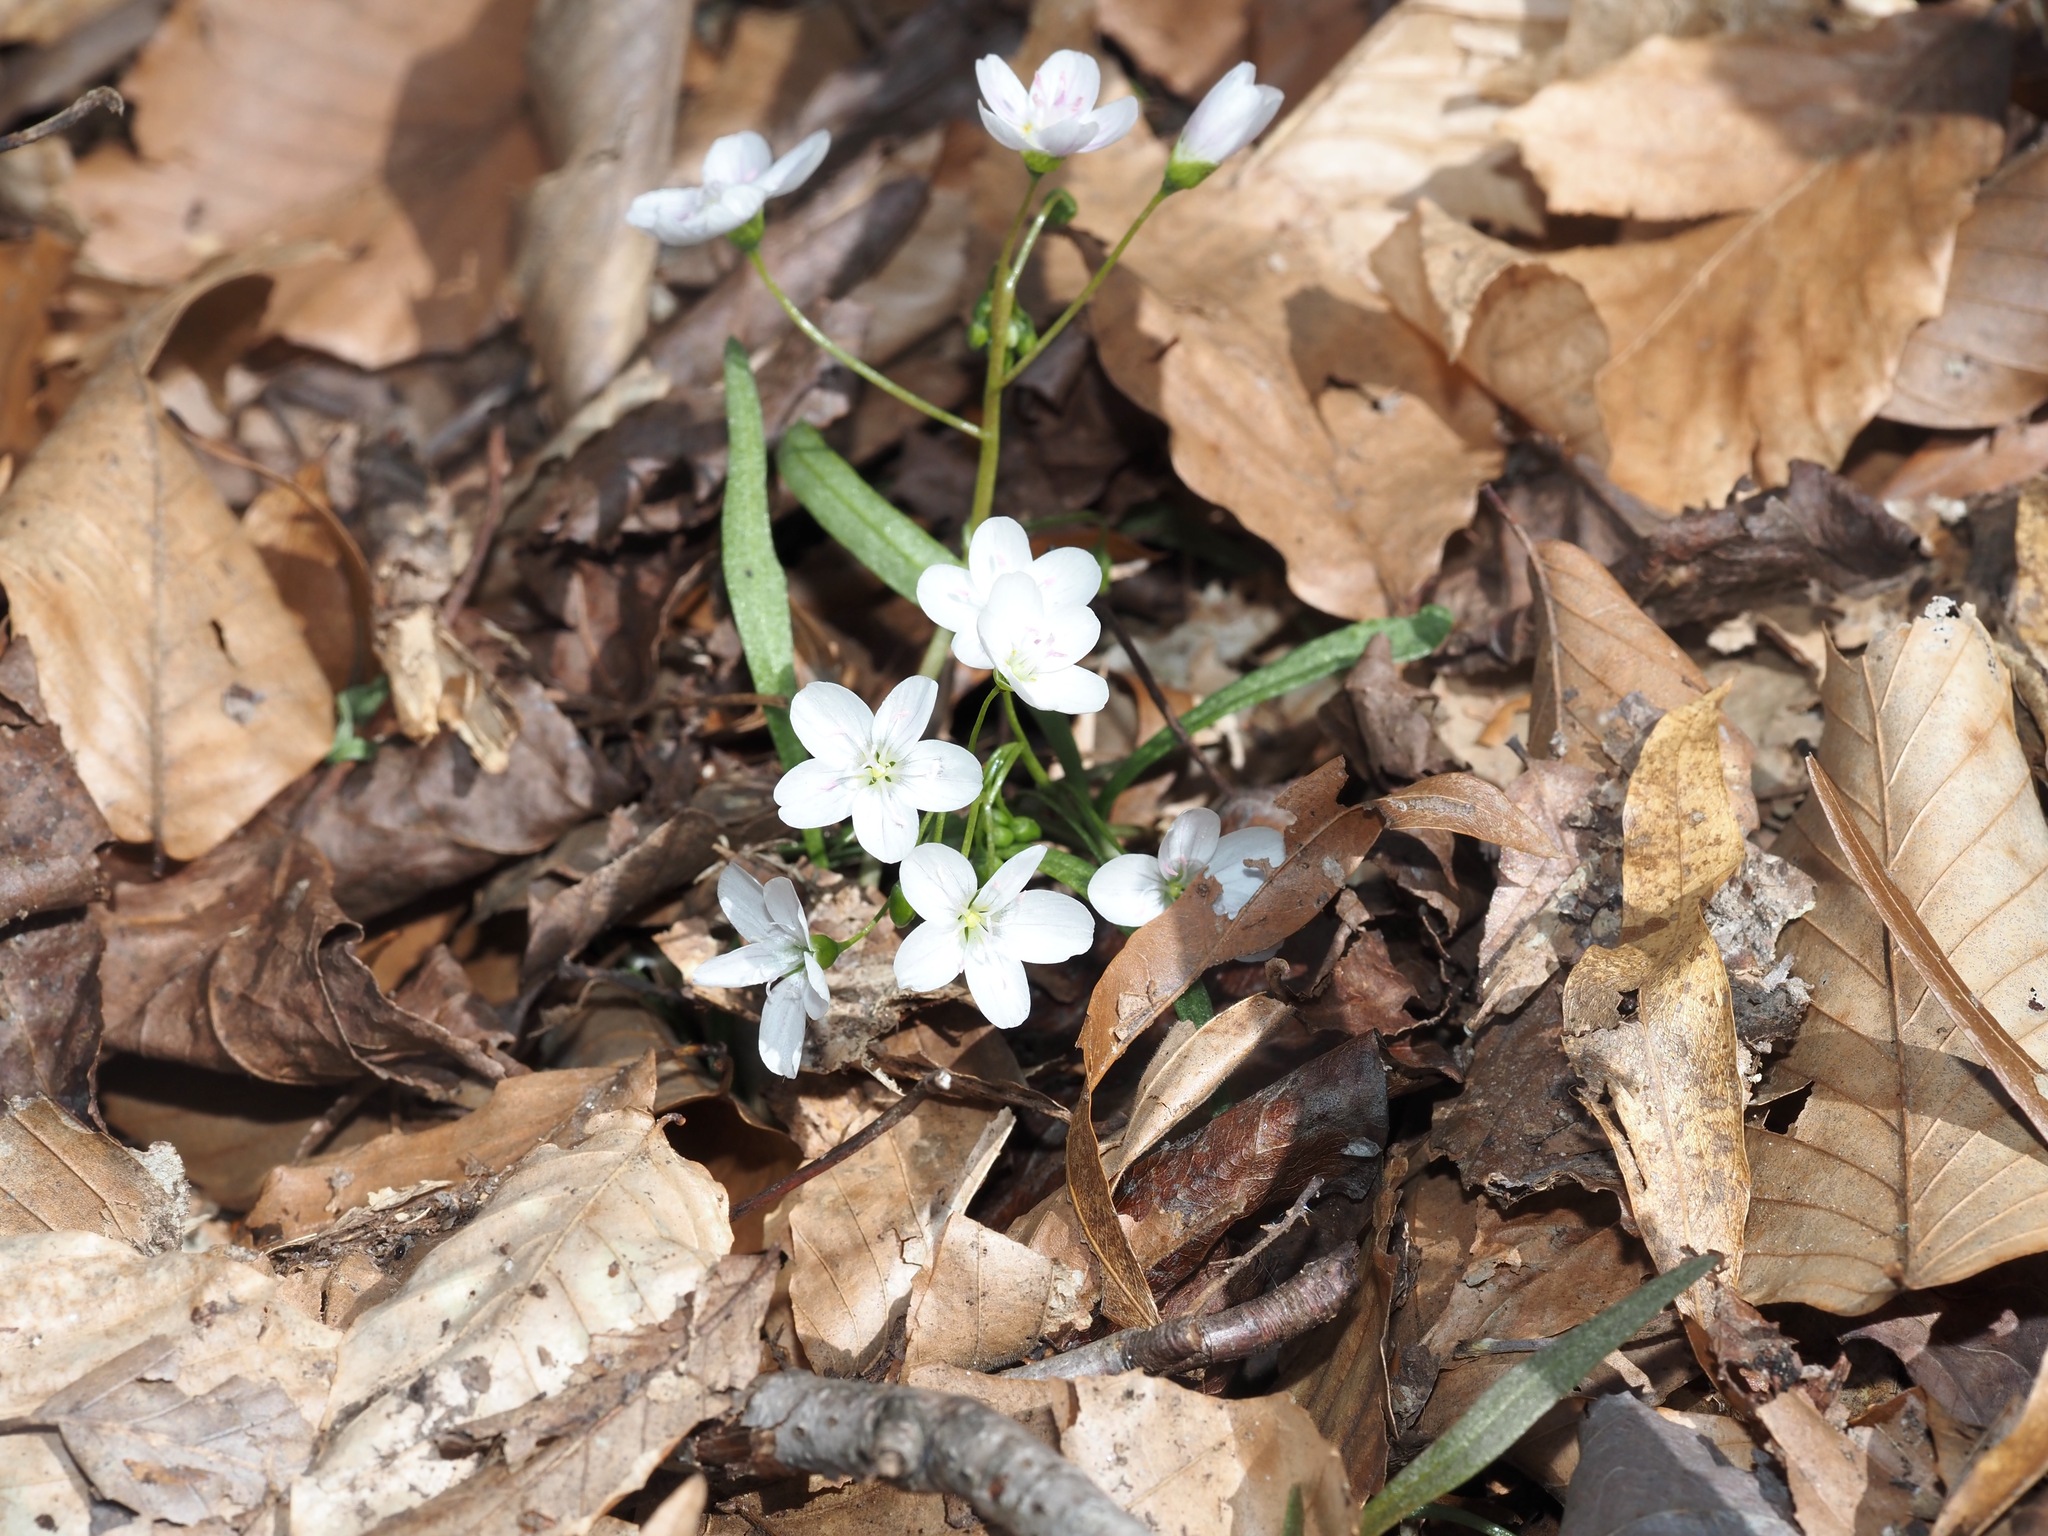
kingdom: Plantae
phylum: Tracheophyta
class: Magnoliopsida
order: Caryophyllales
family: Montiaceae
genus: Claytonia
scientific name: Claytonia virginica
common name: Virginia springbeauty
